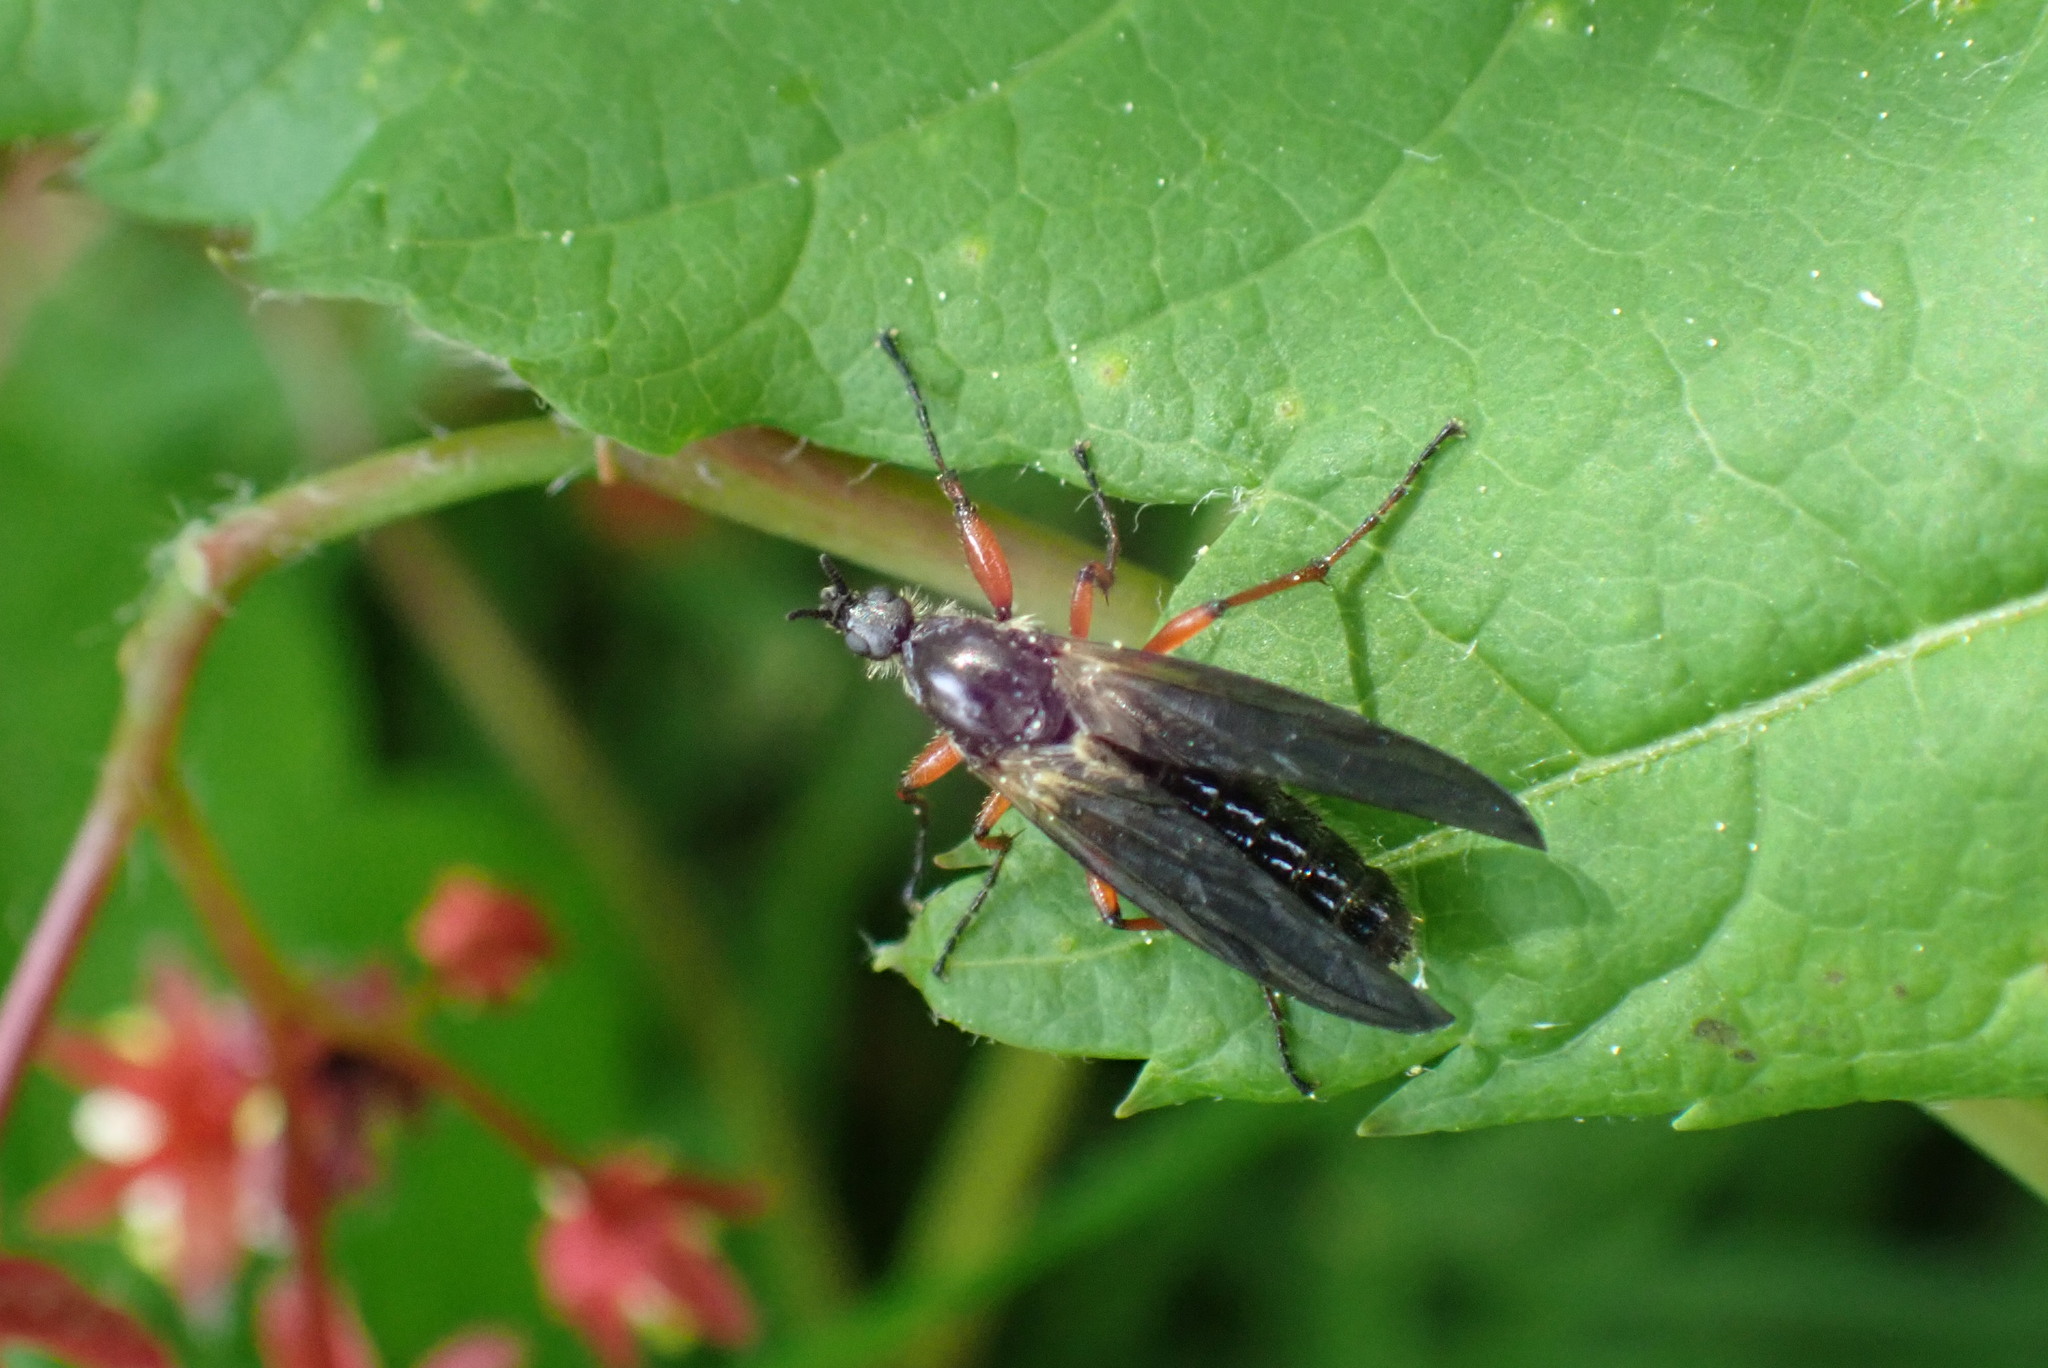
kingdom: Animalia
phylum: Arthropoda
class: Insecta
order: Diptera
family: Bibionidae
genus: Bibio
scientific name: Bibio
